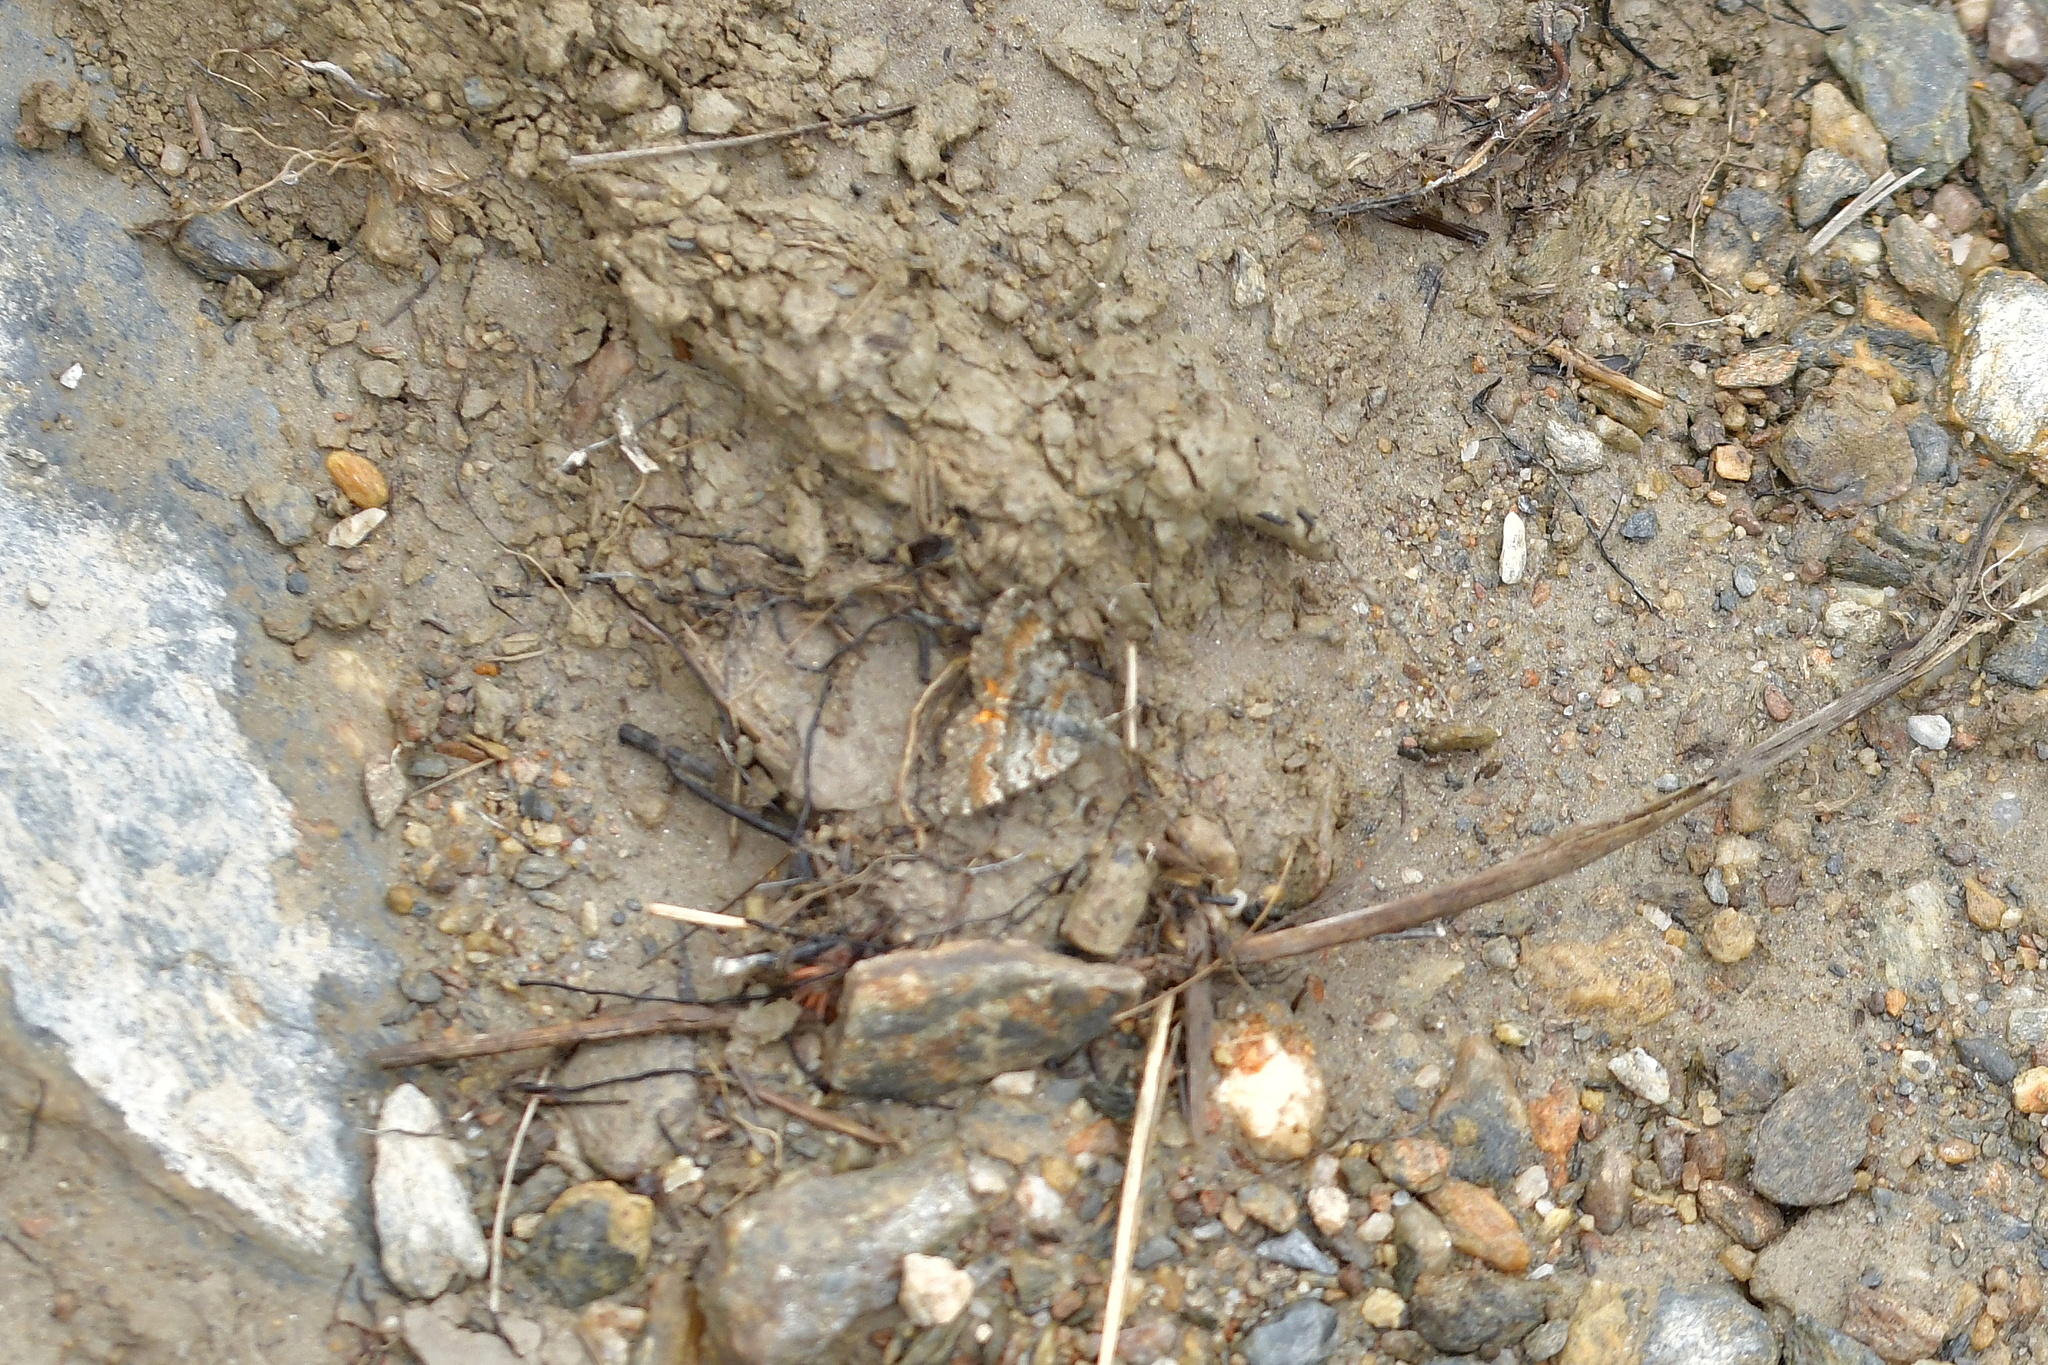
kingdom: Animalia
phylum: Arthropoda
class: Insecta
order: Lepidoptera
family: Geometridae
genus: Paranotoreas
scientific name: Paranotoreas zopyra
